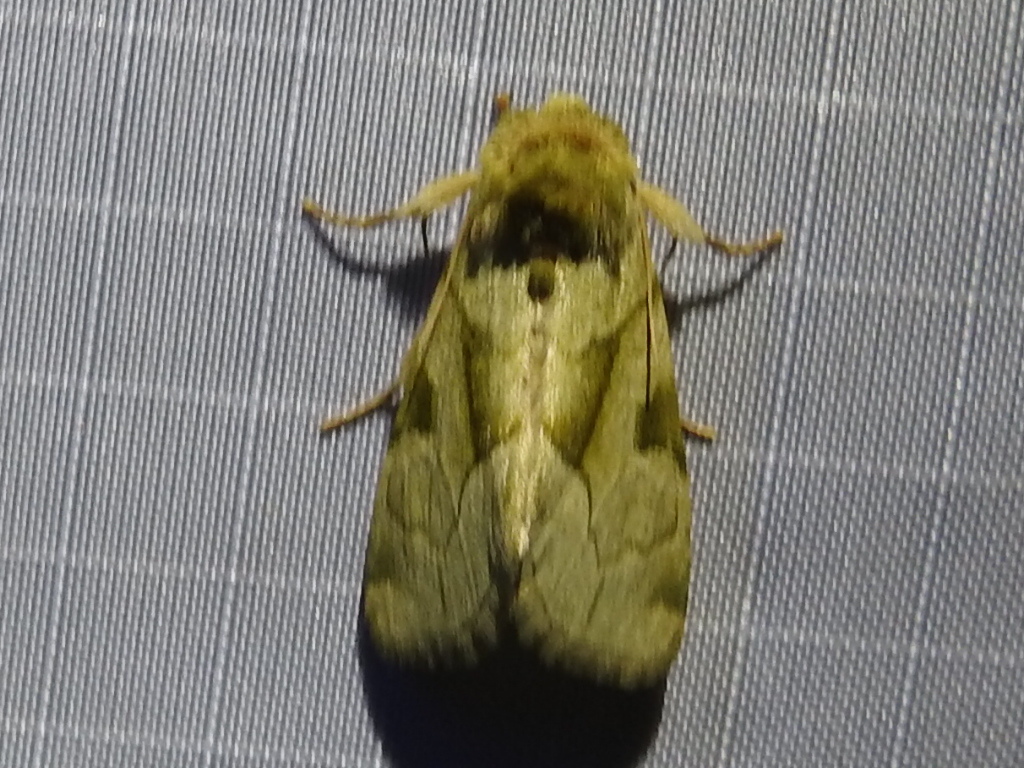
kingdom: Animalia
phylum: Arthropoda
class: Insecta
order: Lepidoptera
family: Noctuidae
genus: Oslaria
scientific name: Oslaria viridifera
